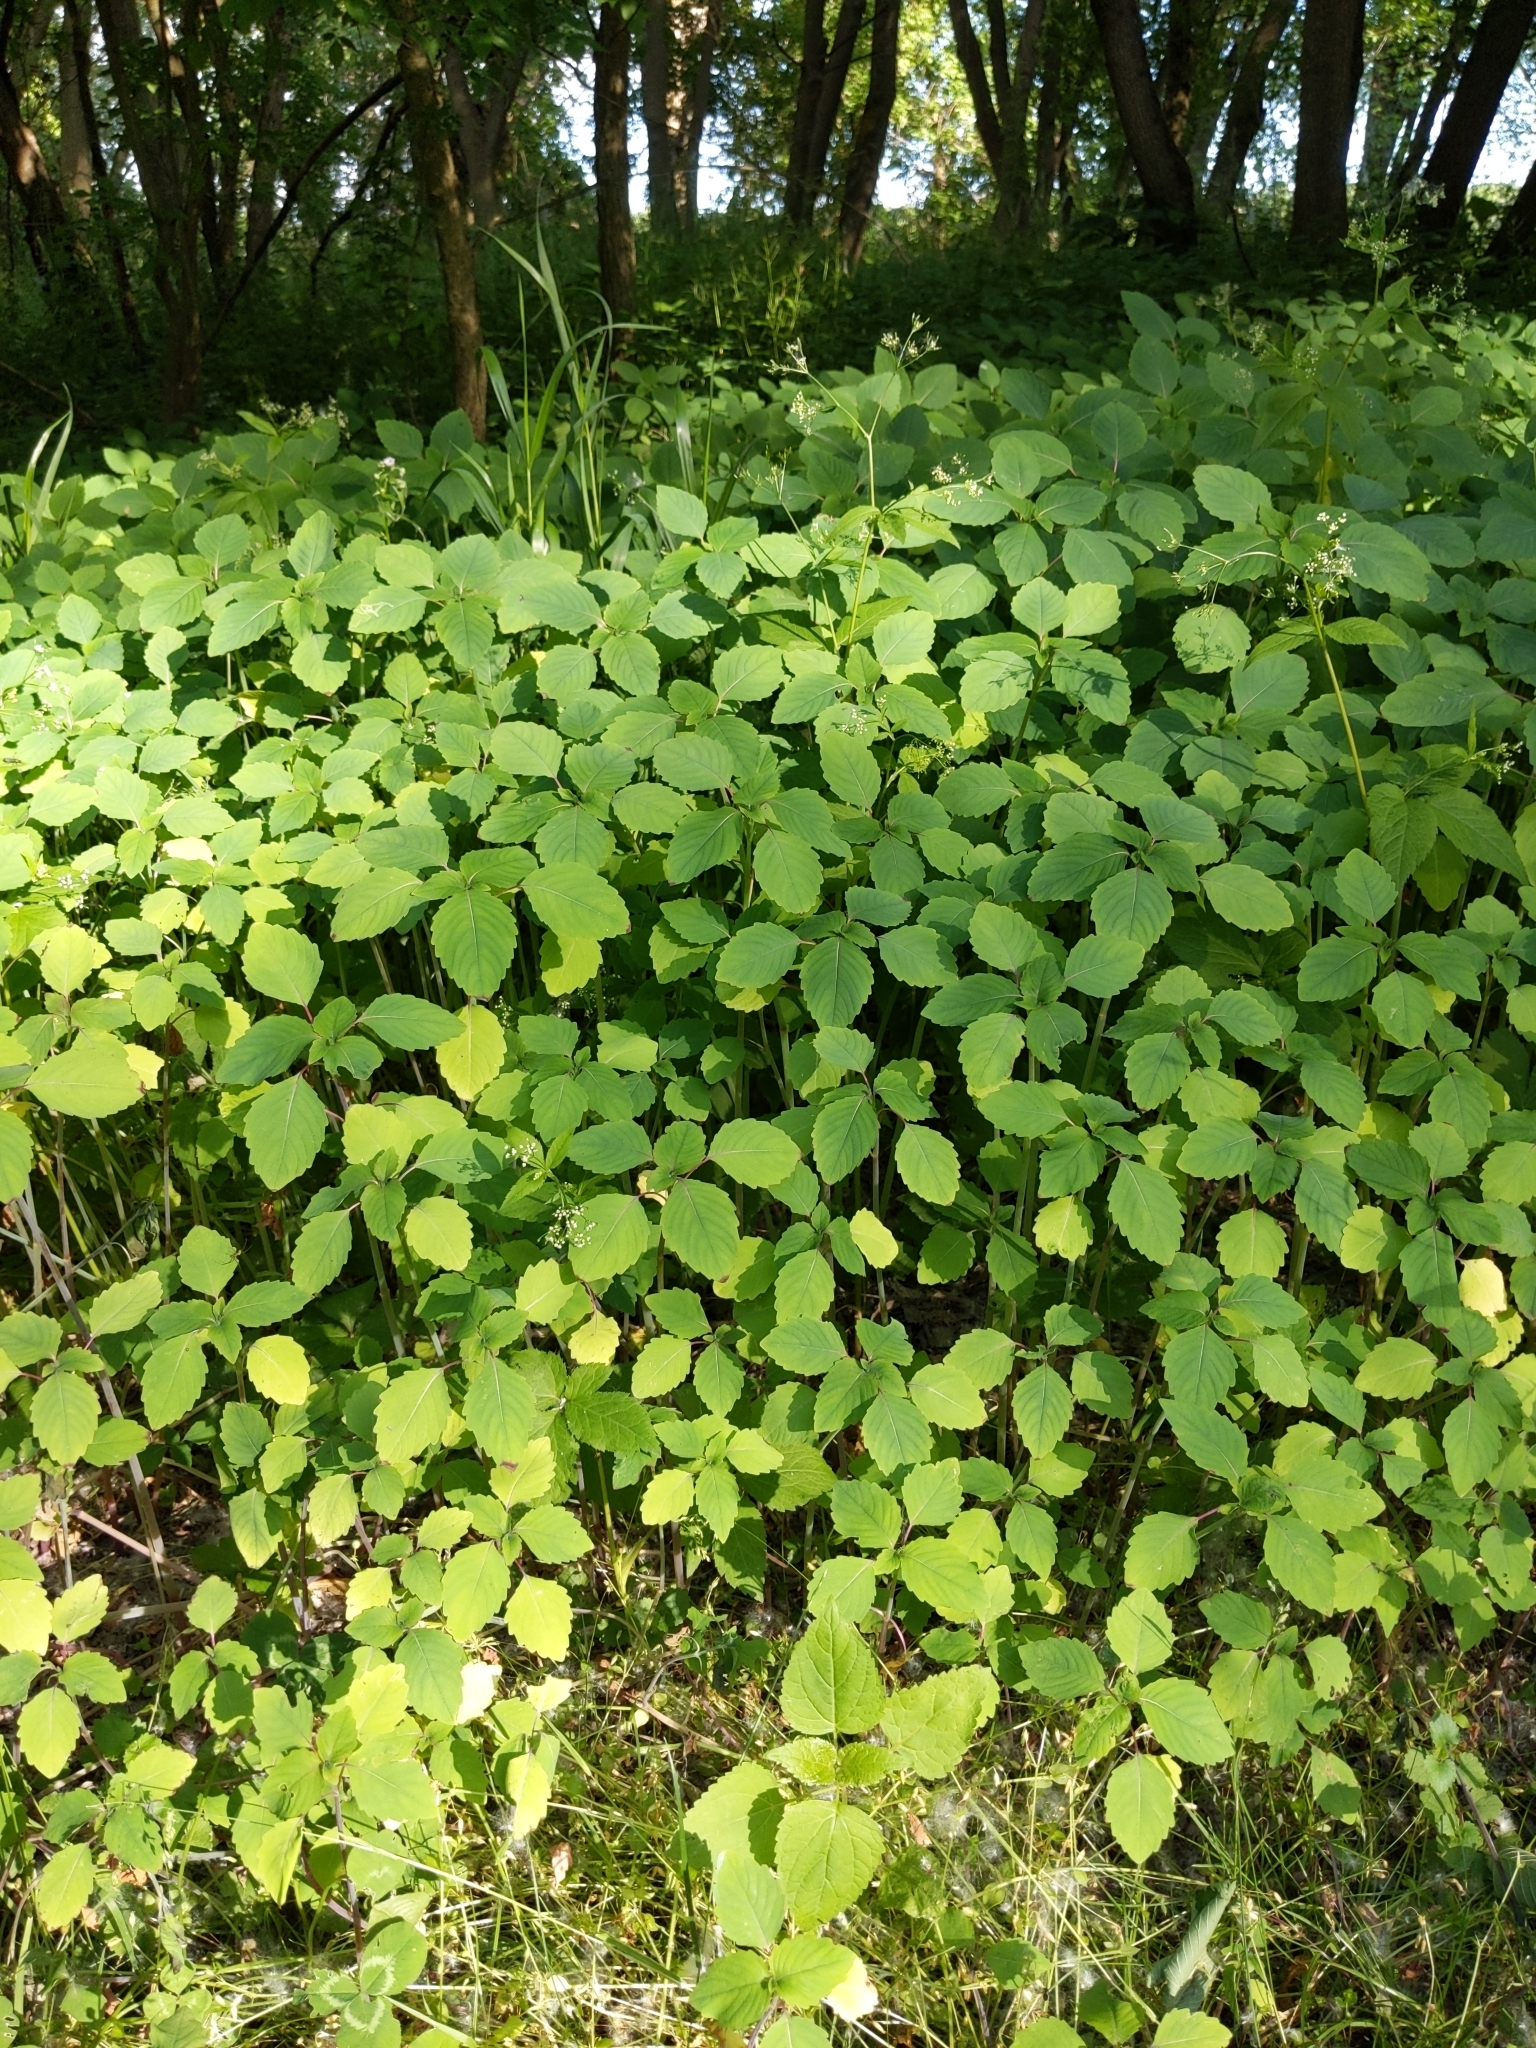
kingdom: Plantae
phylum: Tracheophyta
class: Magnoliopsida
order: Ericales
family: Balsaminaceae
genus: Impatiens
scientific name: Impatiens
